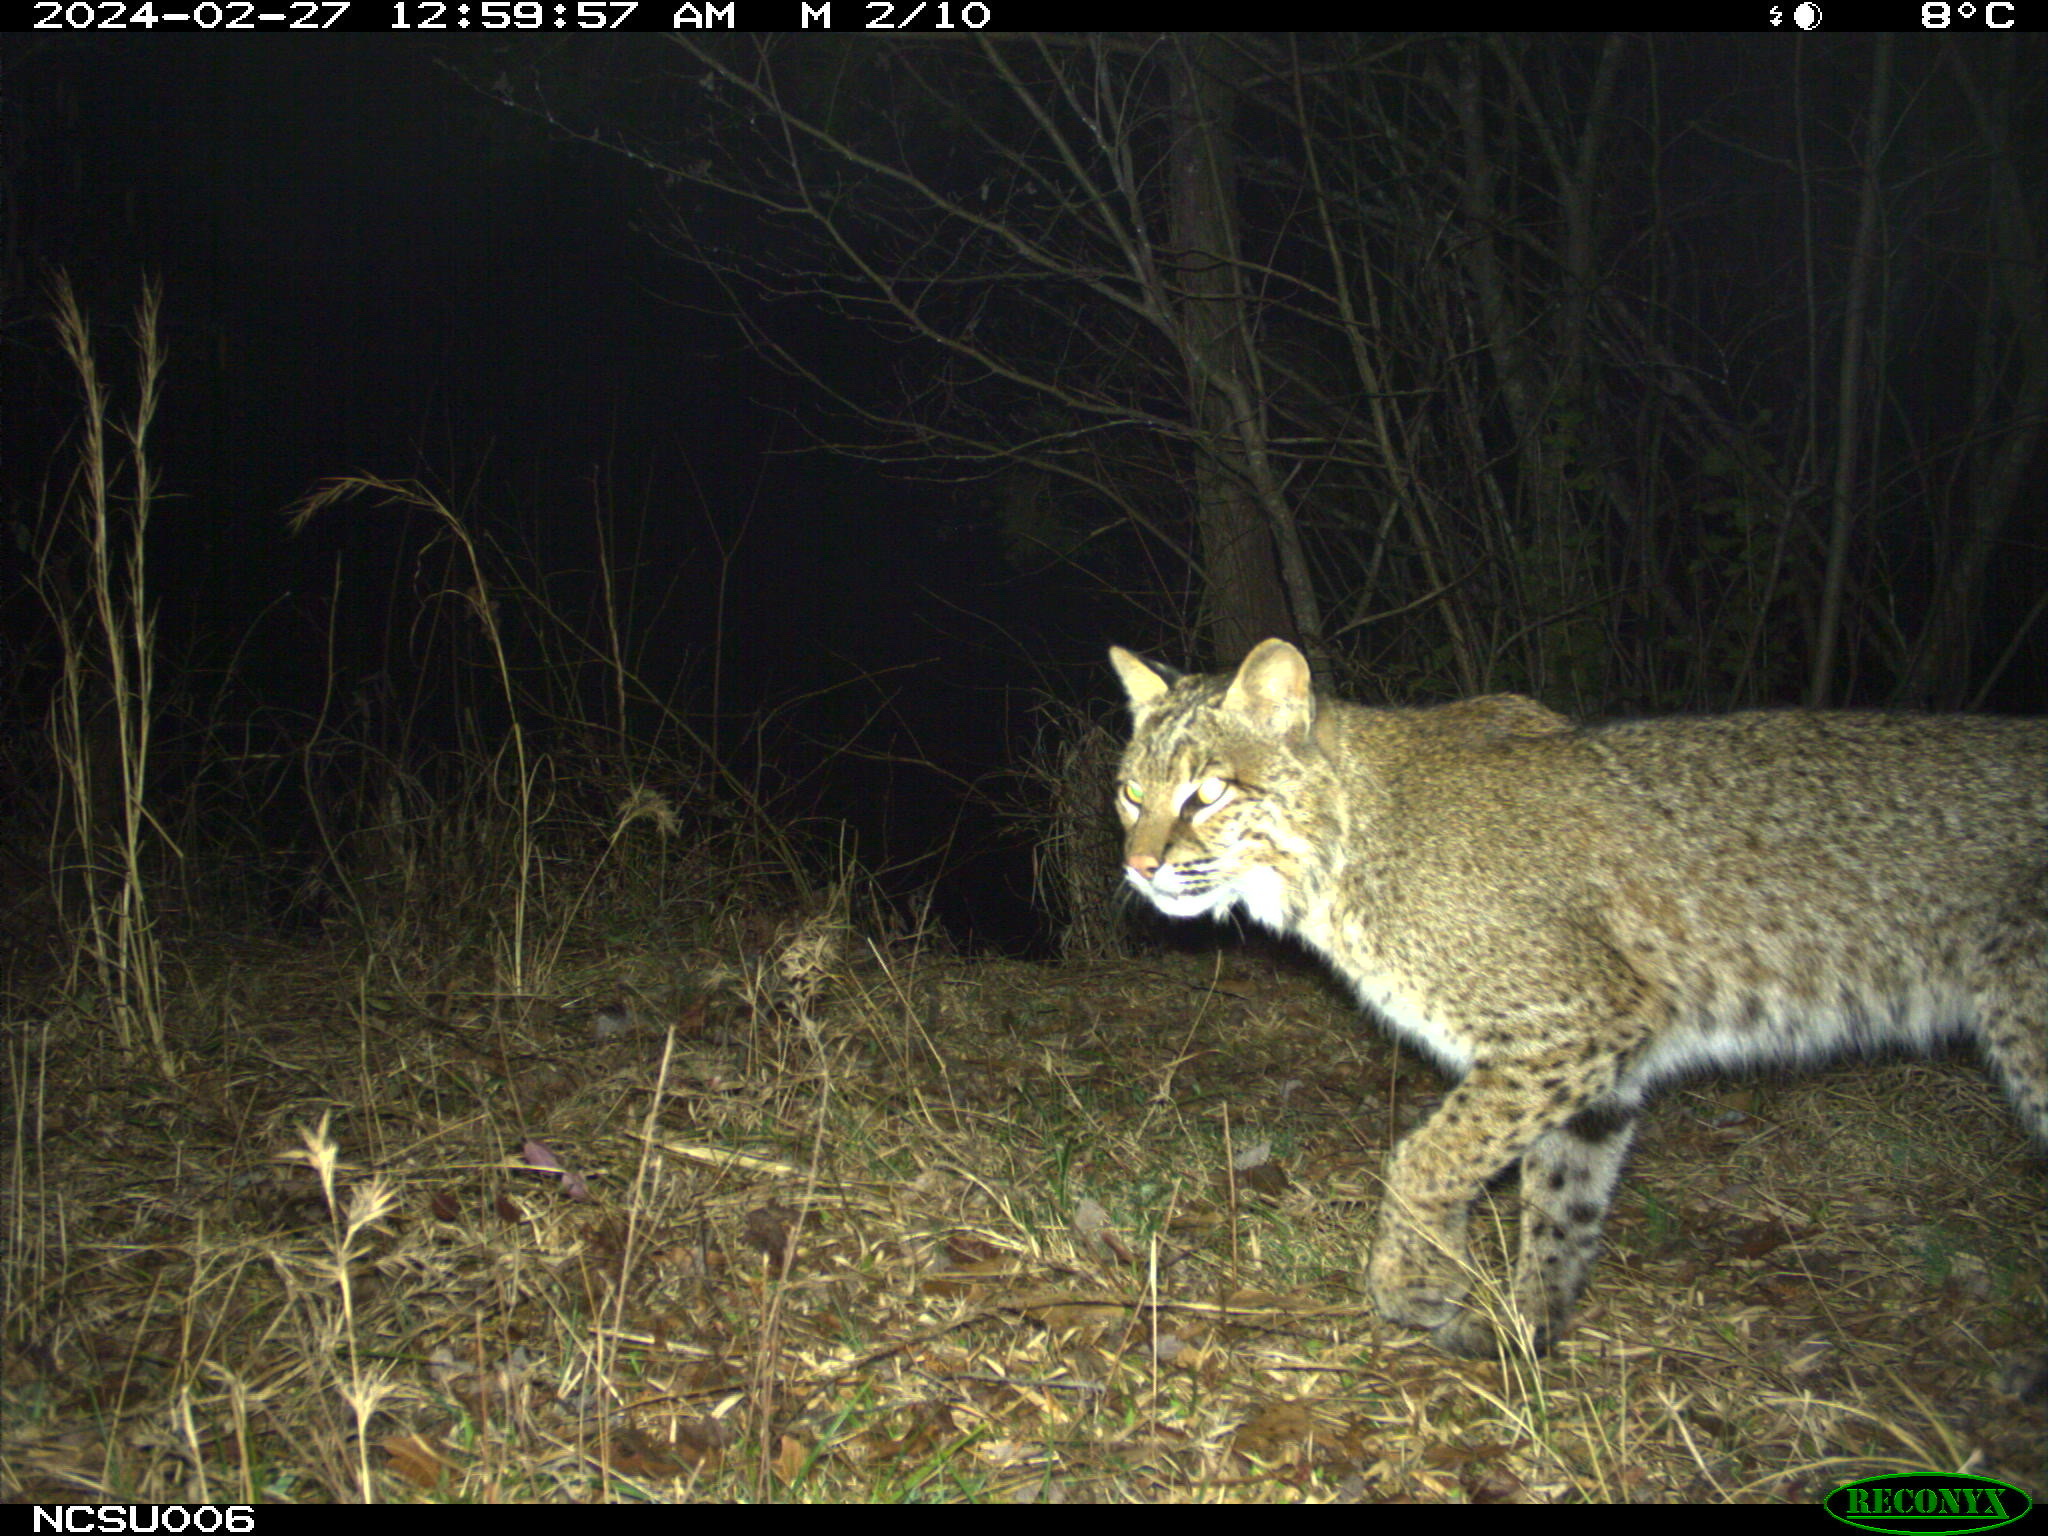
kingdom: Animalia
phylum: Chordata
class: Mammalia
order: Carnivora
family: Felidae
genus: Lynx
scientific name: Lynx rufus
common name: Bobcat
